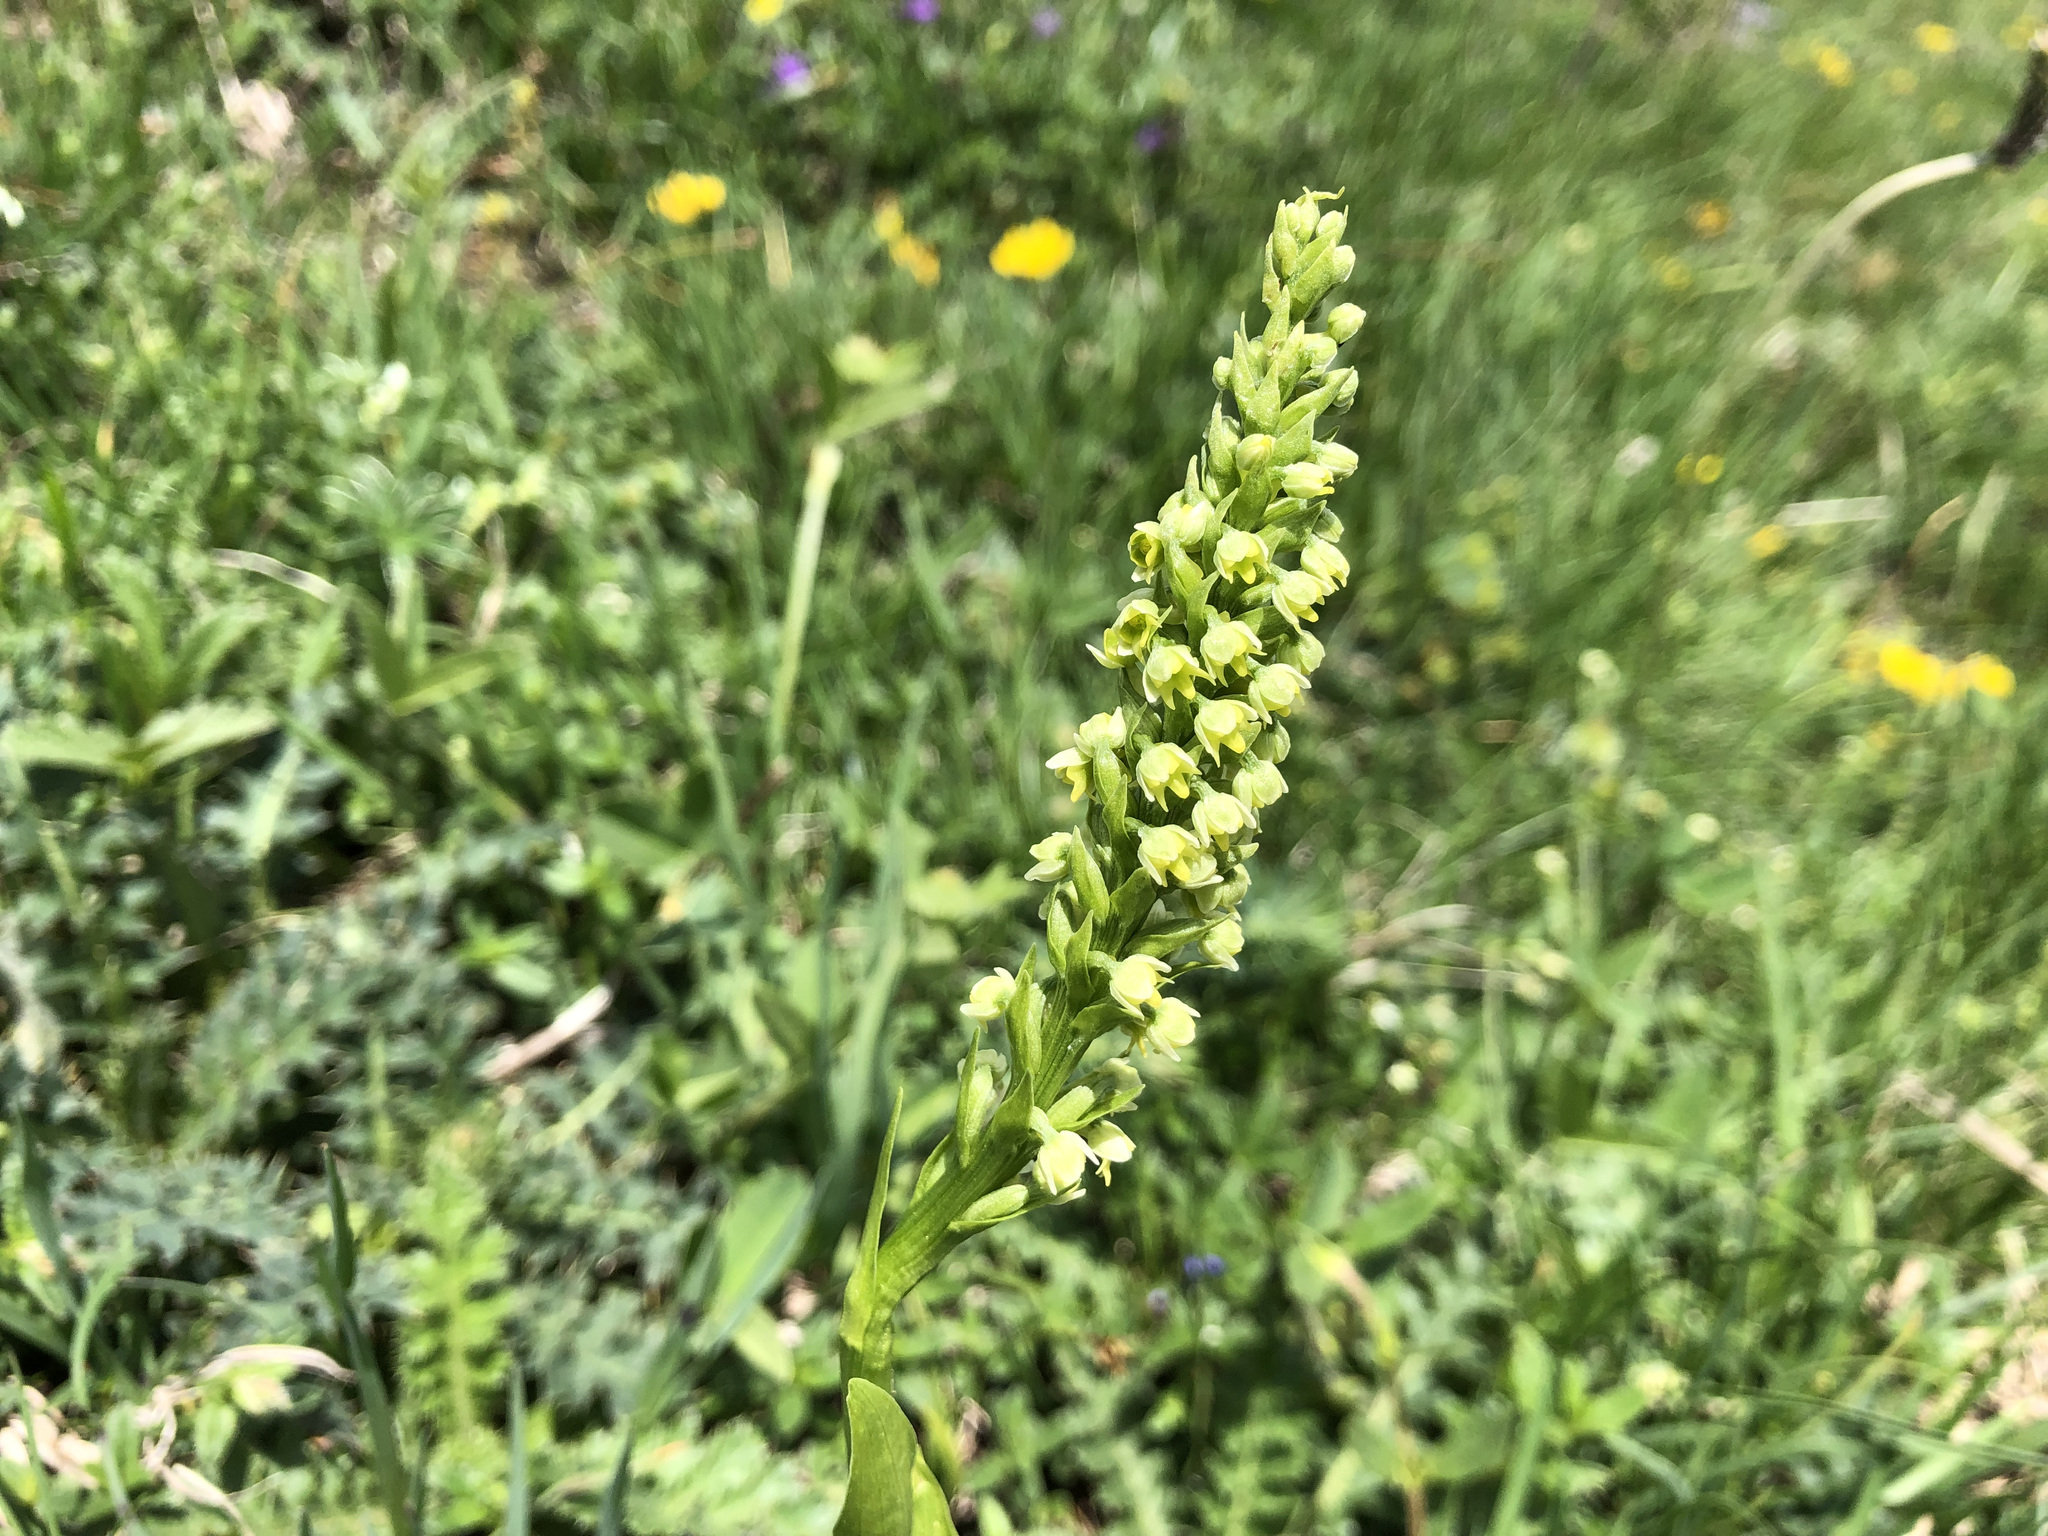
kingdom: Plantae
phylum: Tracheophyta
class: Liliopsida
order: Asparagales
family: Orchidaceae
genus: Pseudorchis
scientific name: Pseudorchis albida
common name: Small-white orchid
